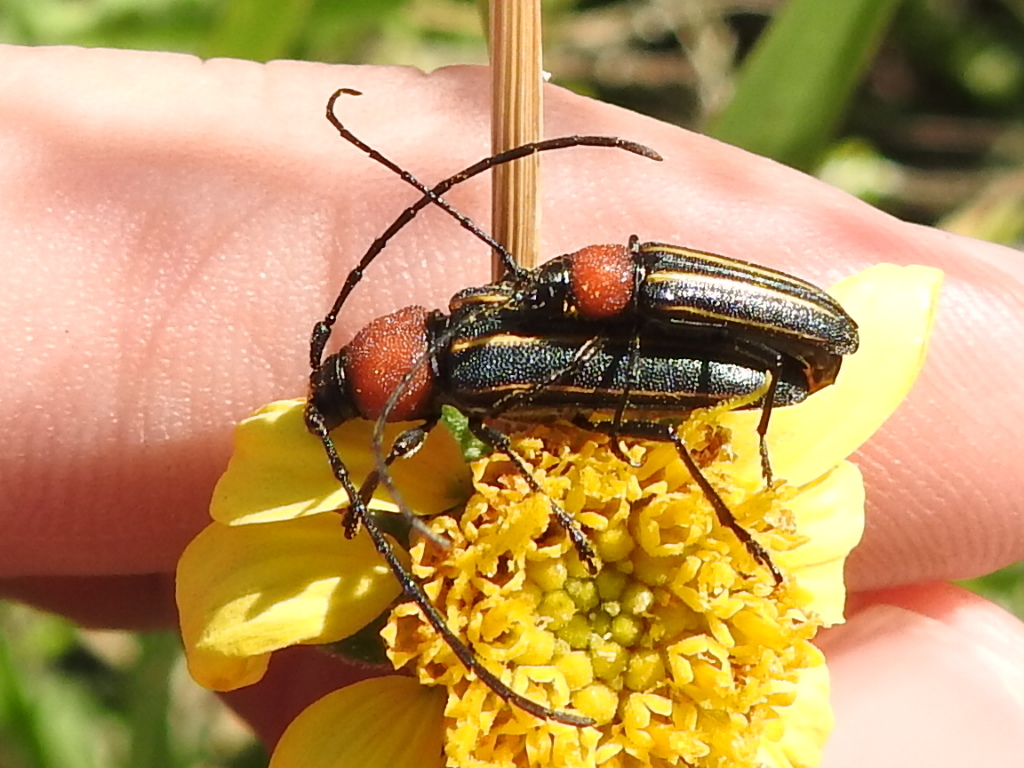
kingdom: Animalia
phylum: Arthropoda
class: Insecta
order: Coleoptera
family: Cerambycidae
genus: Mannophorus
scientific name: Mannophorus laetus
